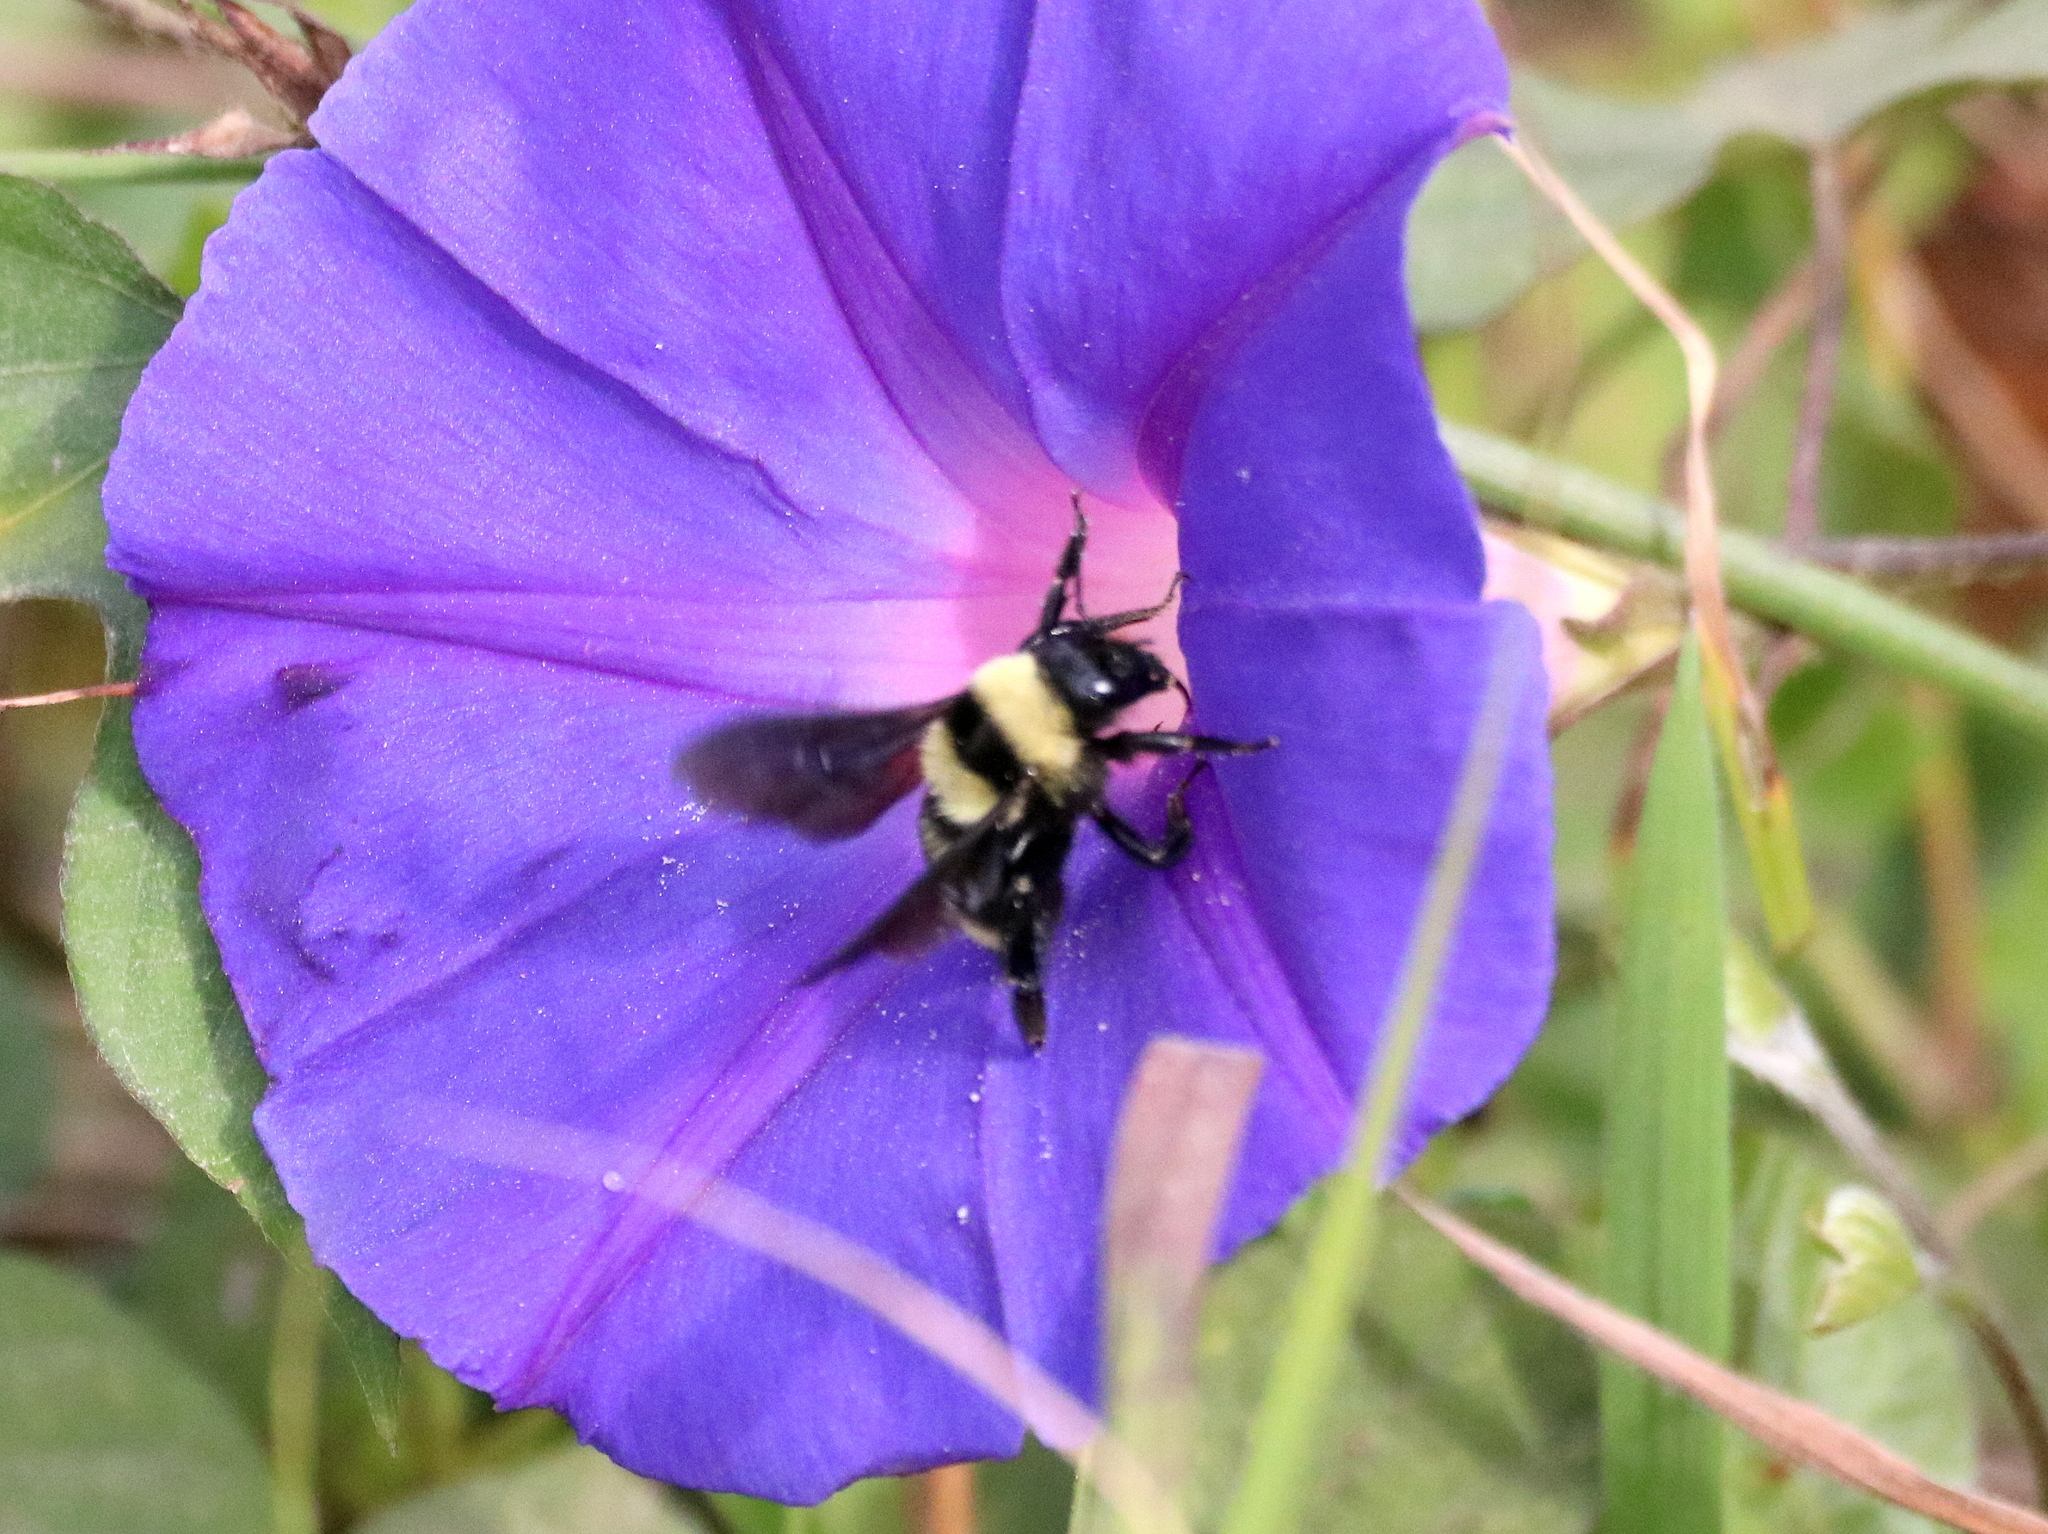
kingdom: Animalia
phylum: Arthropoda
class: Insecta
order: Hymenoptera
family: Apidae
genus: Bombus
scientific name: Bombus brasiliensis
